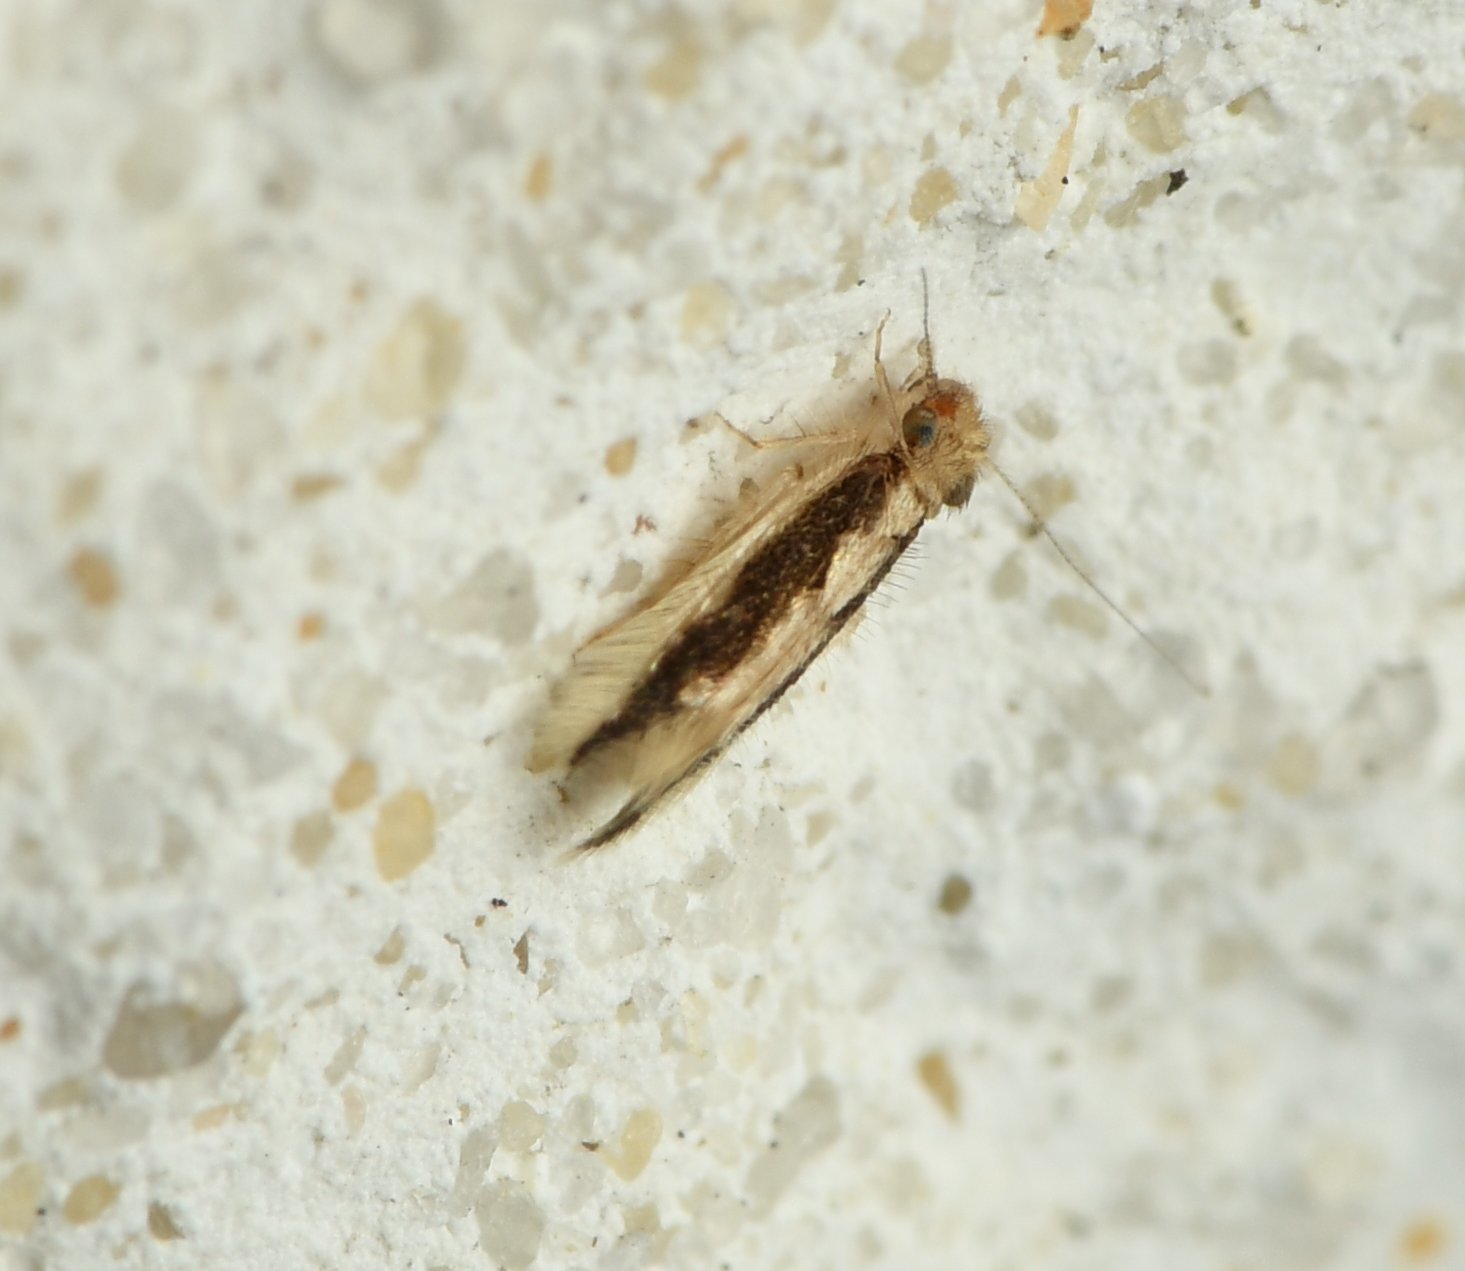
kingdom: Animalia
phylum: Arthropoda
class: Insecta
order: Psocodea
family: Lepidopsocidae
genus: Echmepteryx
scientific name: Echmepteryx madagascariensis
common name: Bark lice
